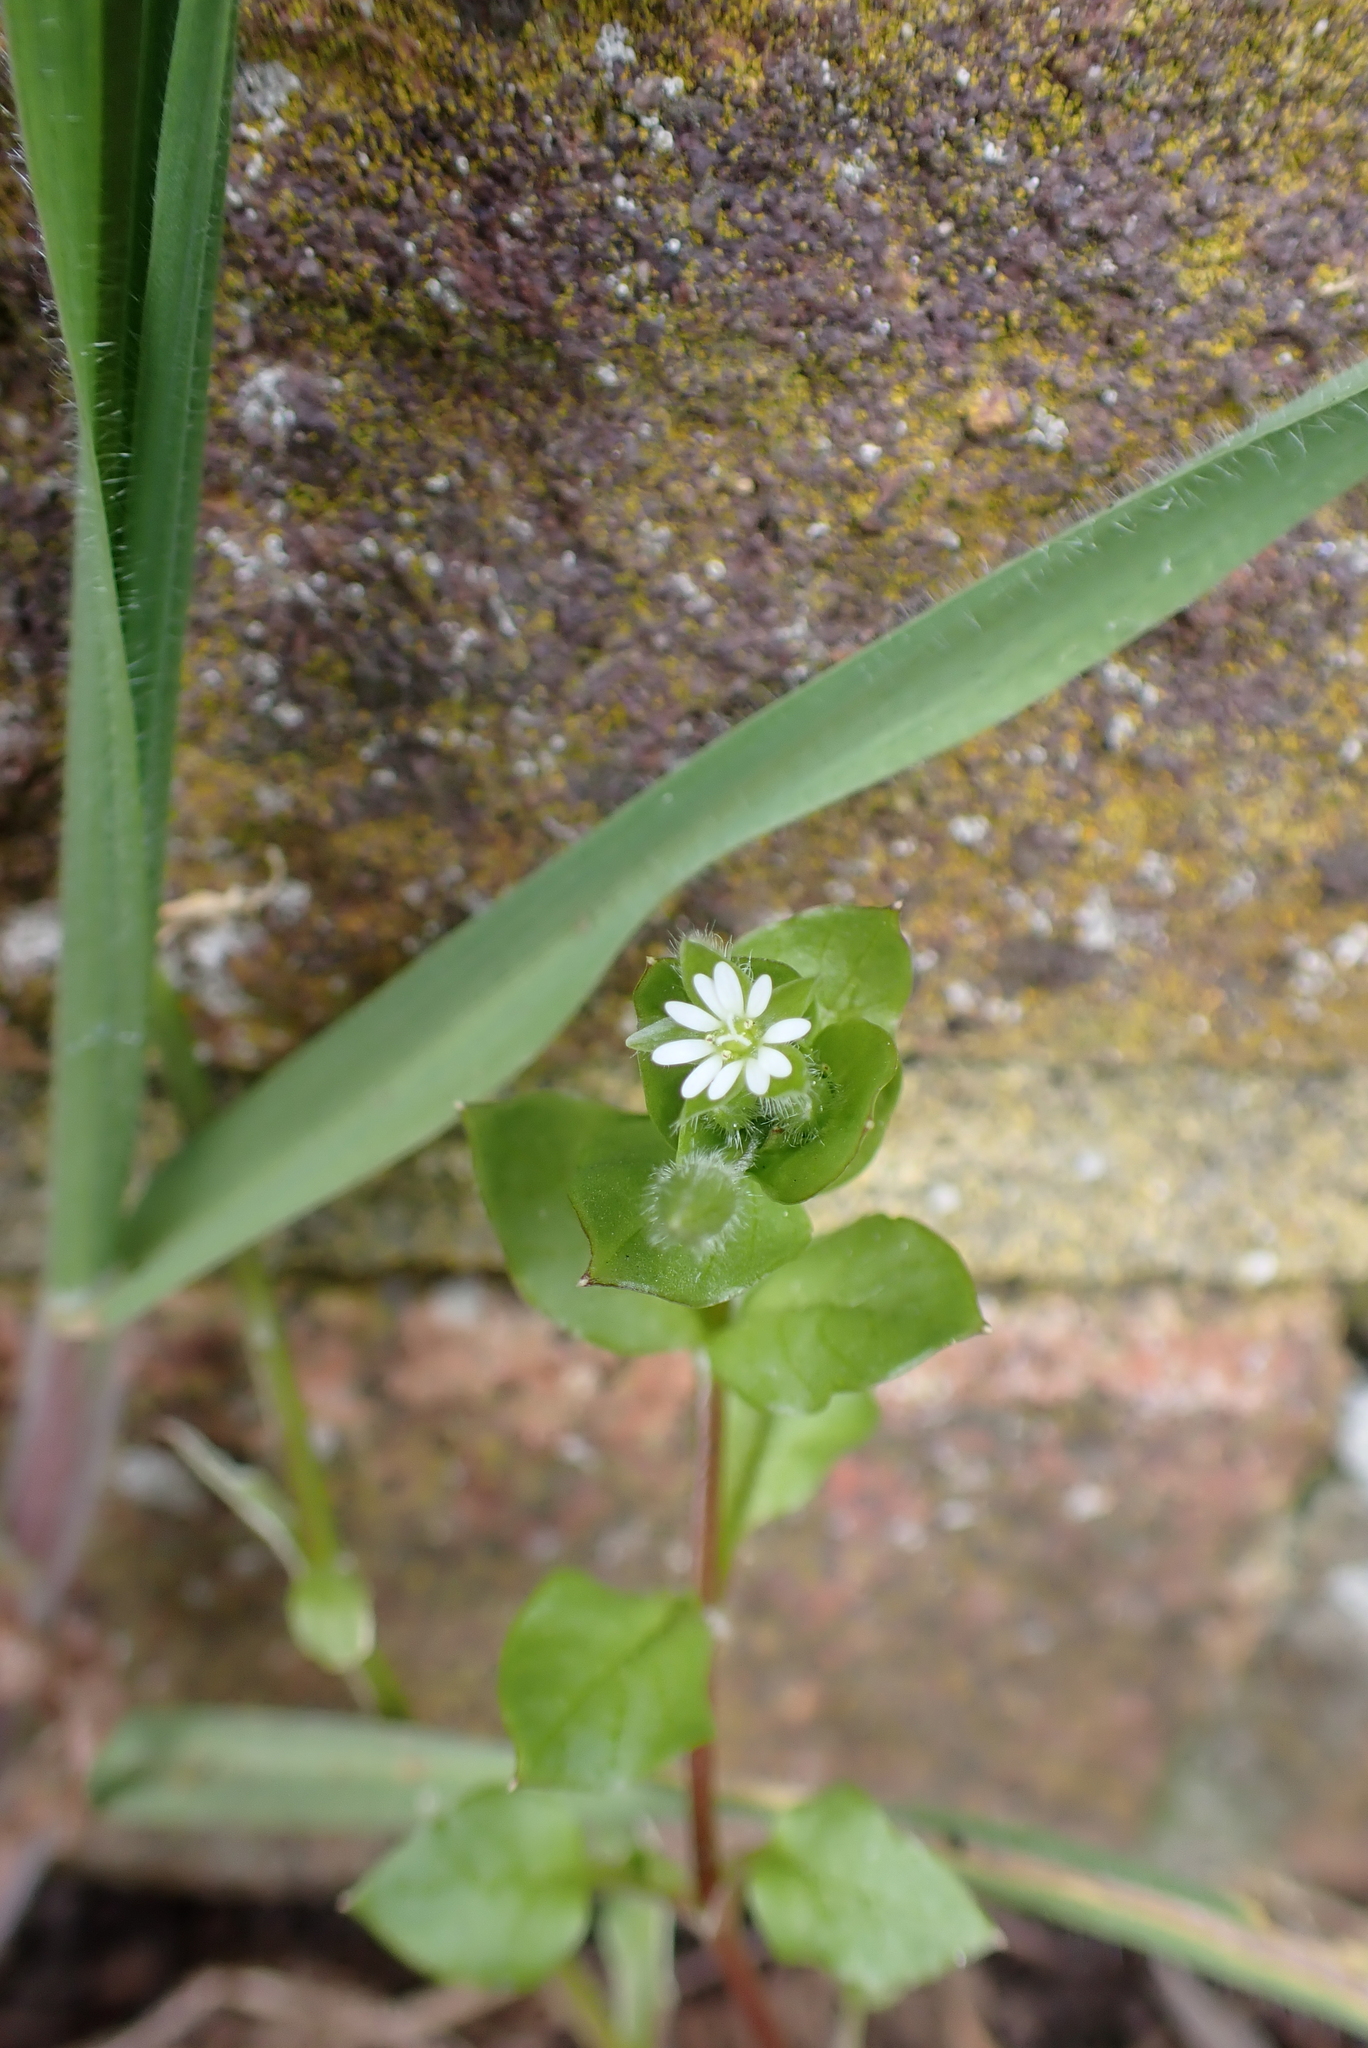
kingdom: Plantae
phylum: Tracheophyta
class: Magnoliopsida
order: Caryophyllales
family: Caryophyllaceae
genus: Stellaria
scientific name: Stellaria media
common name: Common chickweed
